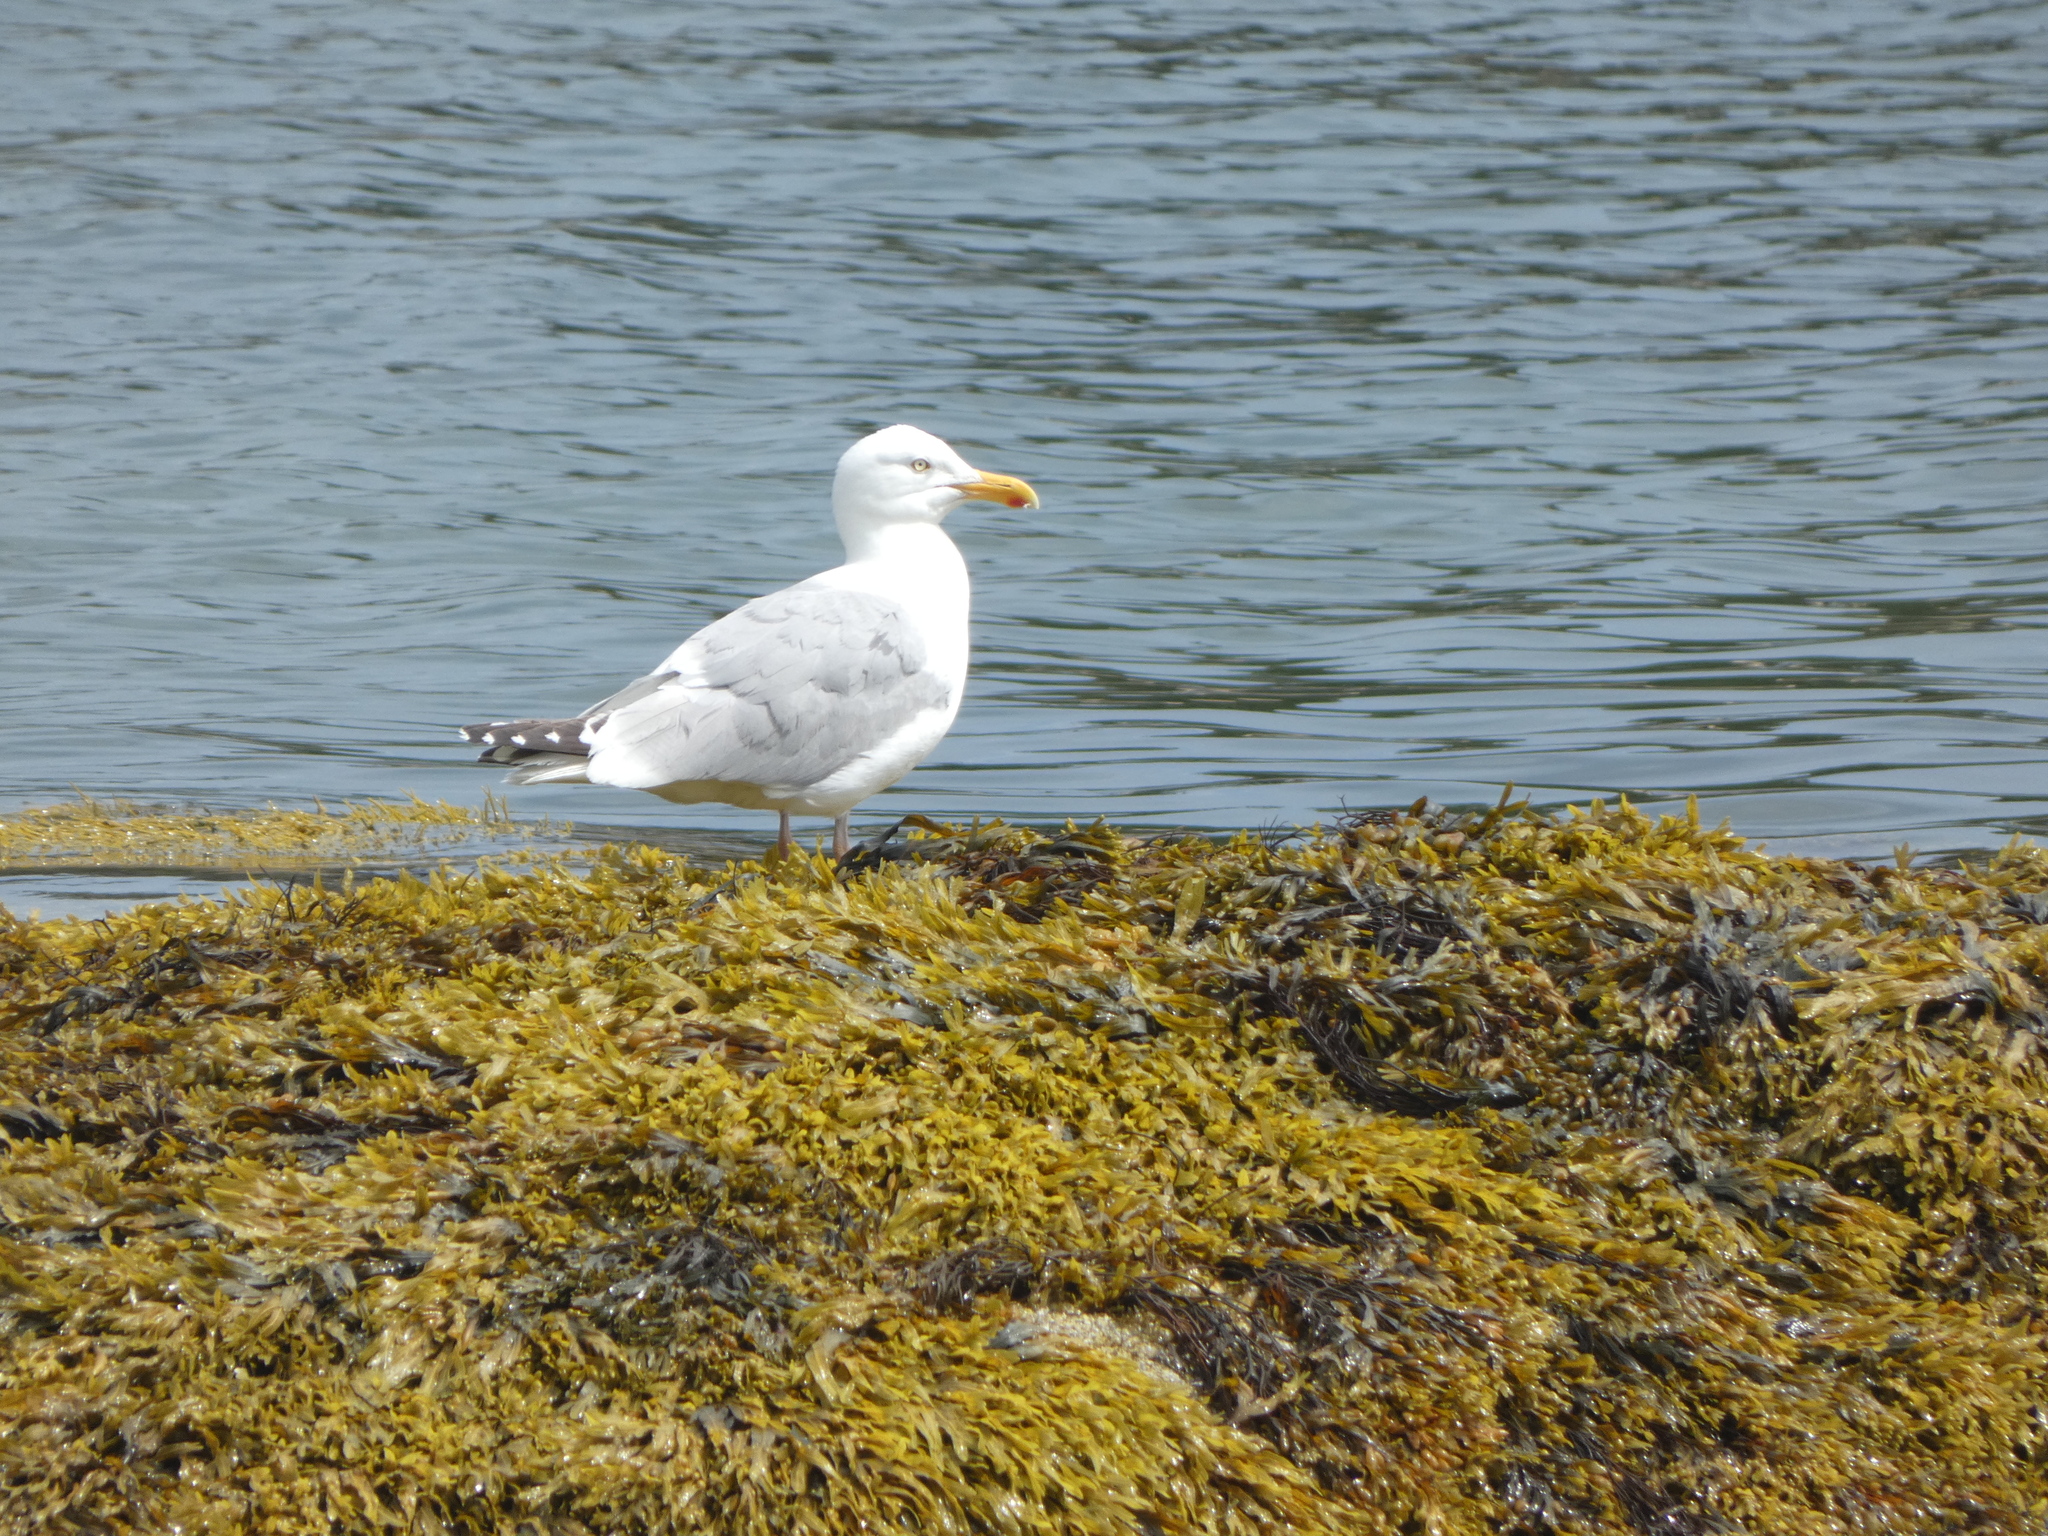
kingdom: Animalia
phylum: Chordata
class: Aves
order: Charadriiformes
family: Laridae
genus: Larus
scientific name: Larus argentatus
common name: Herring gull
